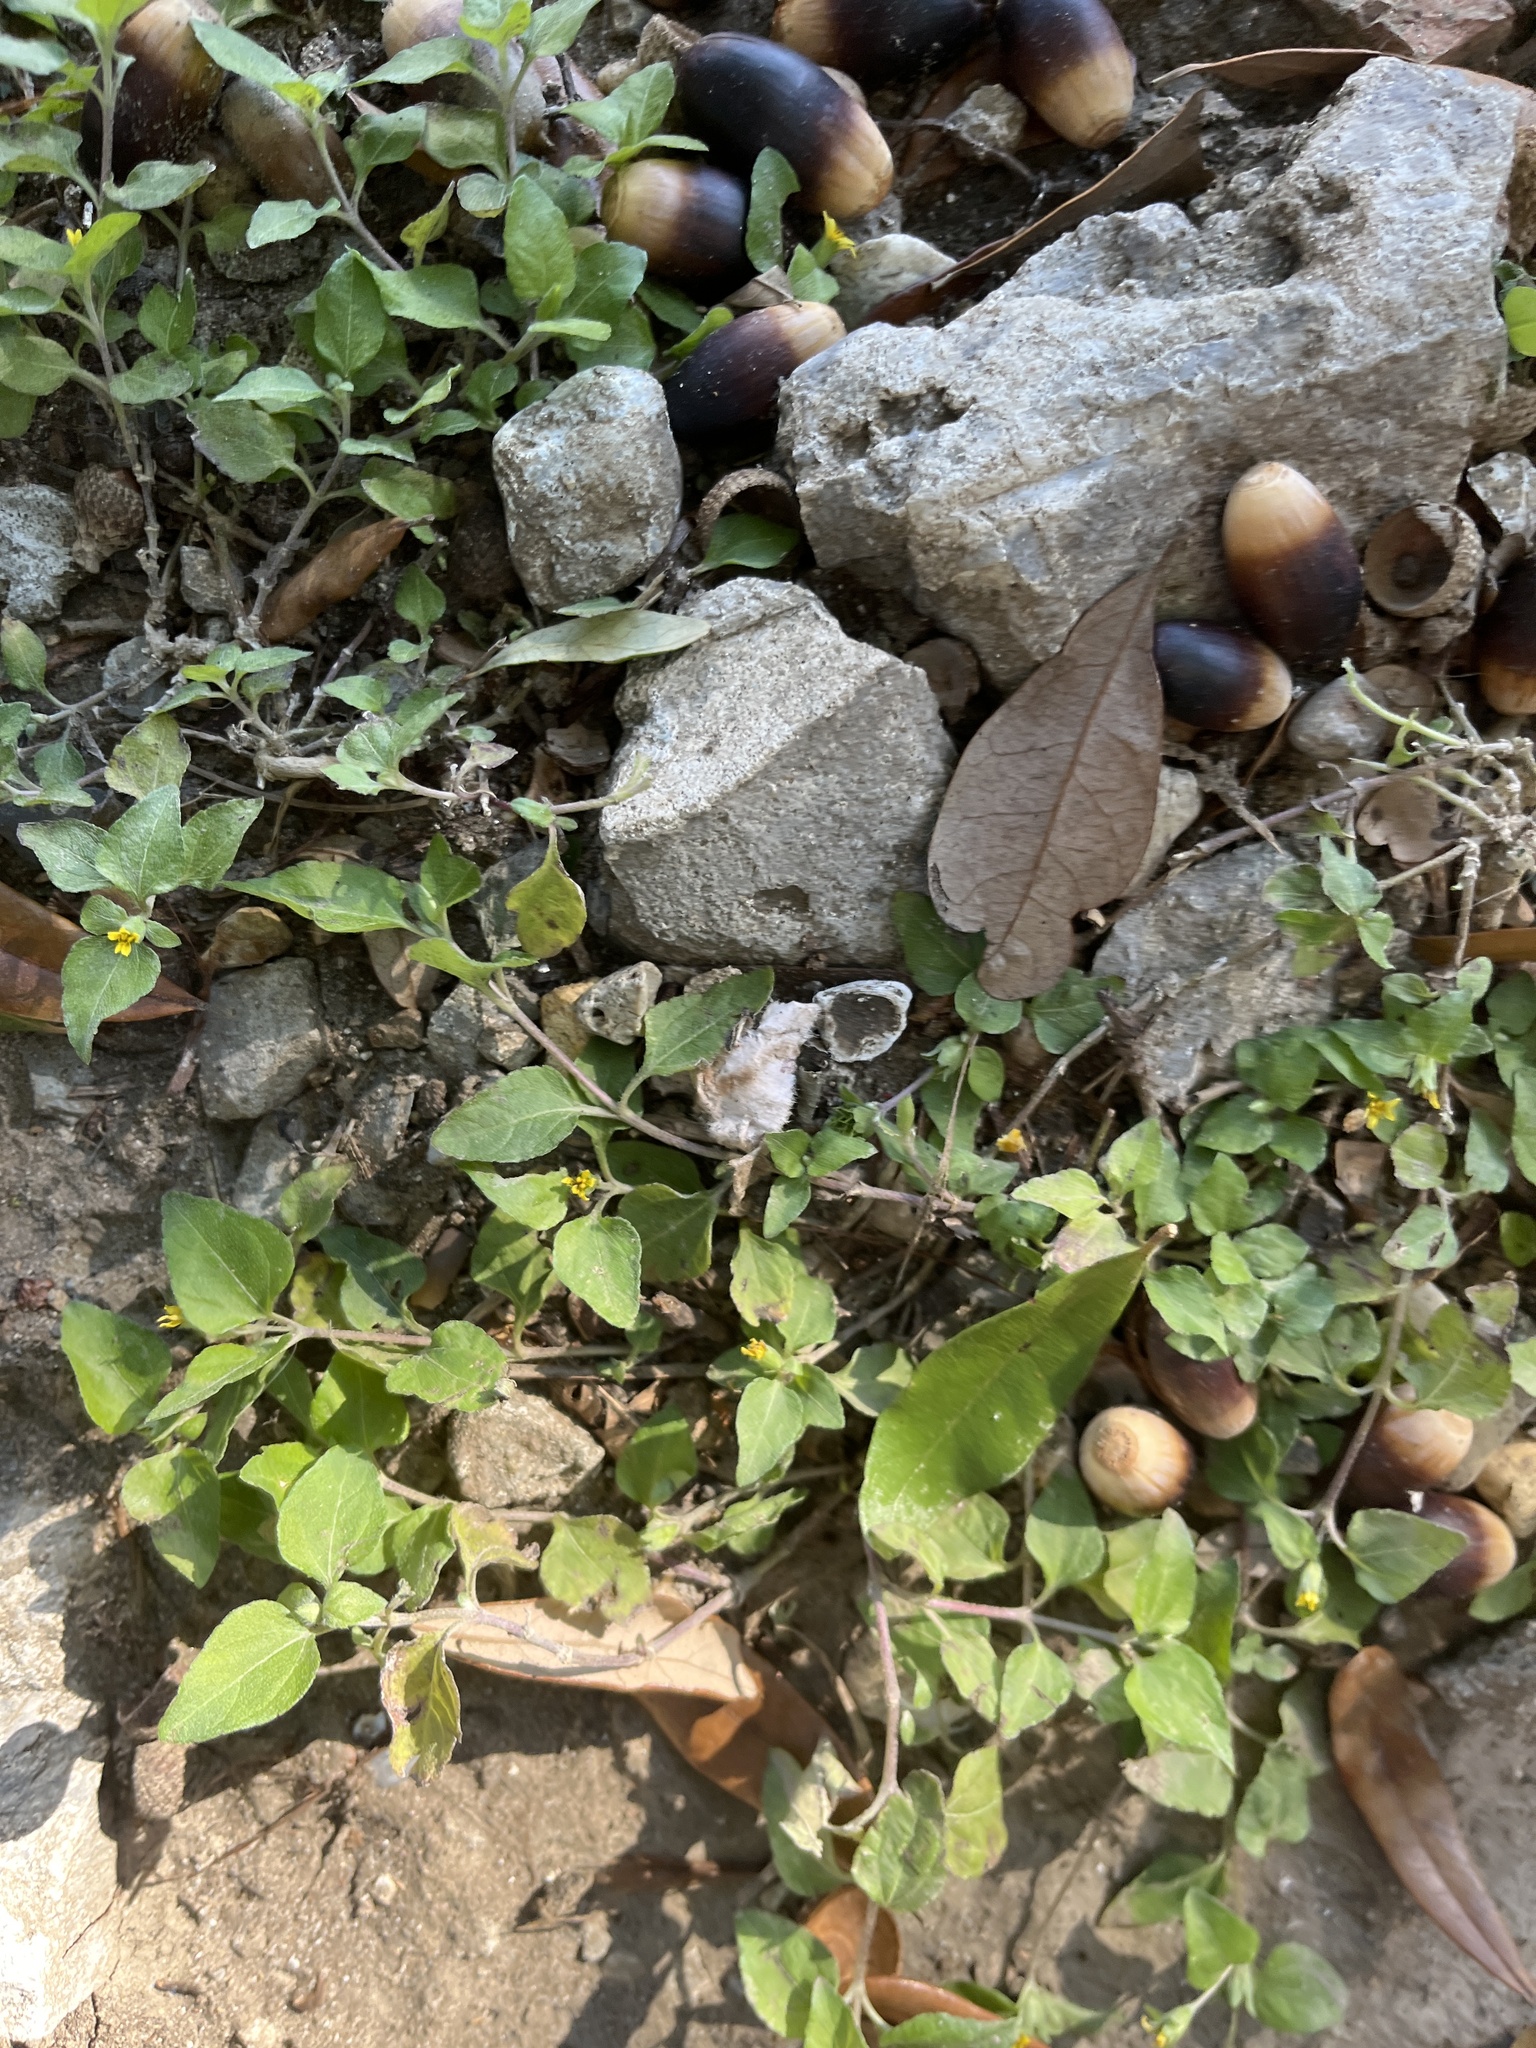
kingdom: Plantae
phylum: Tracheophyta
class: Magnoliopsida
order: Asterales
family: Asteraceae
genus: Calyptocarpus
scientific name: Calyptocarpus vialis
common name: Straggler daisy
